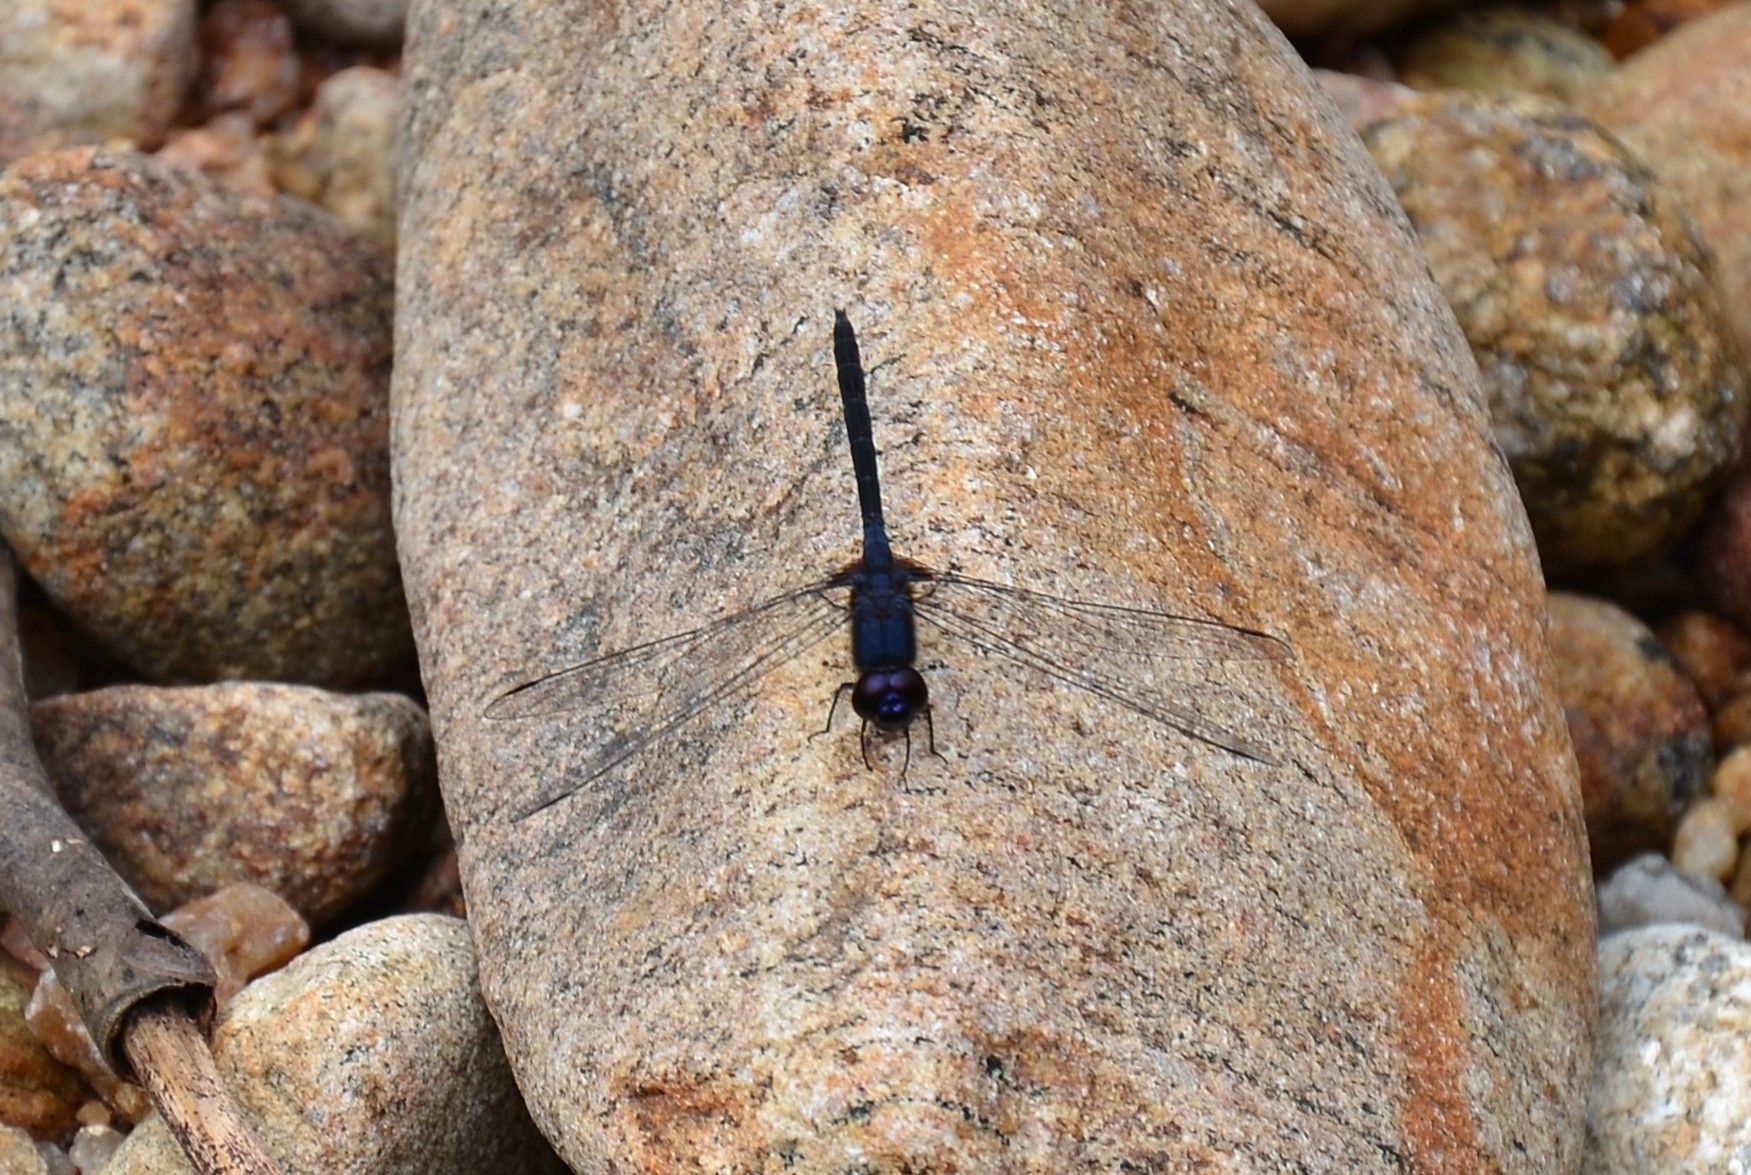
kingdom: Animalia
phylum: Arthropoda
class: Insecta
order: Odonata
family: Libellulidae
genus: Trithemis
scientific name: Trithemis festiva
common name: Indigo dropwing
